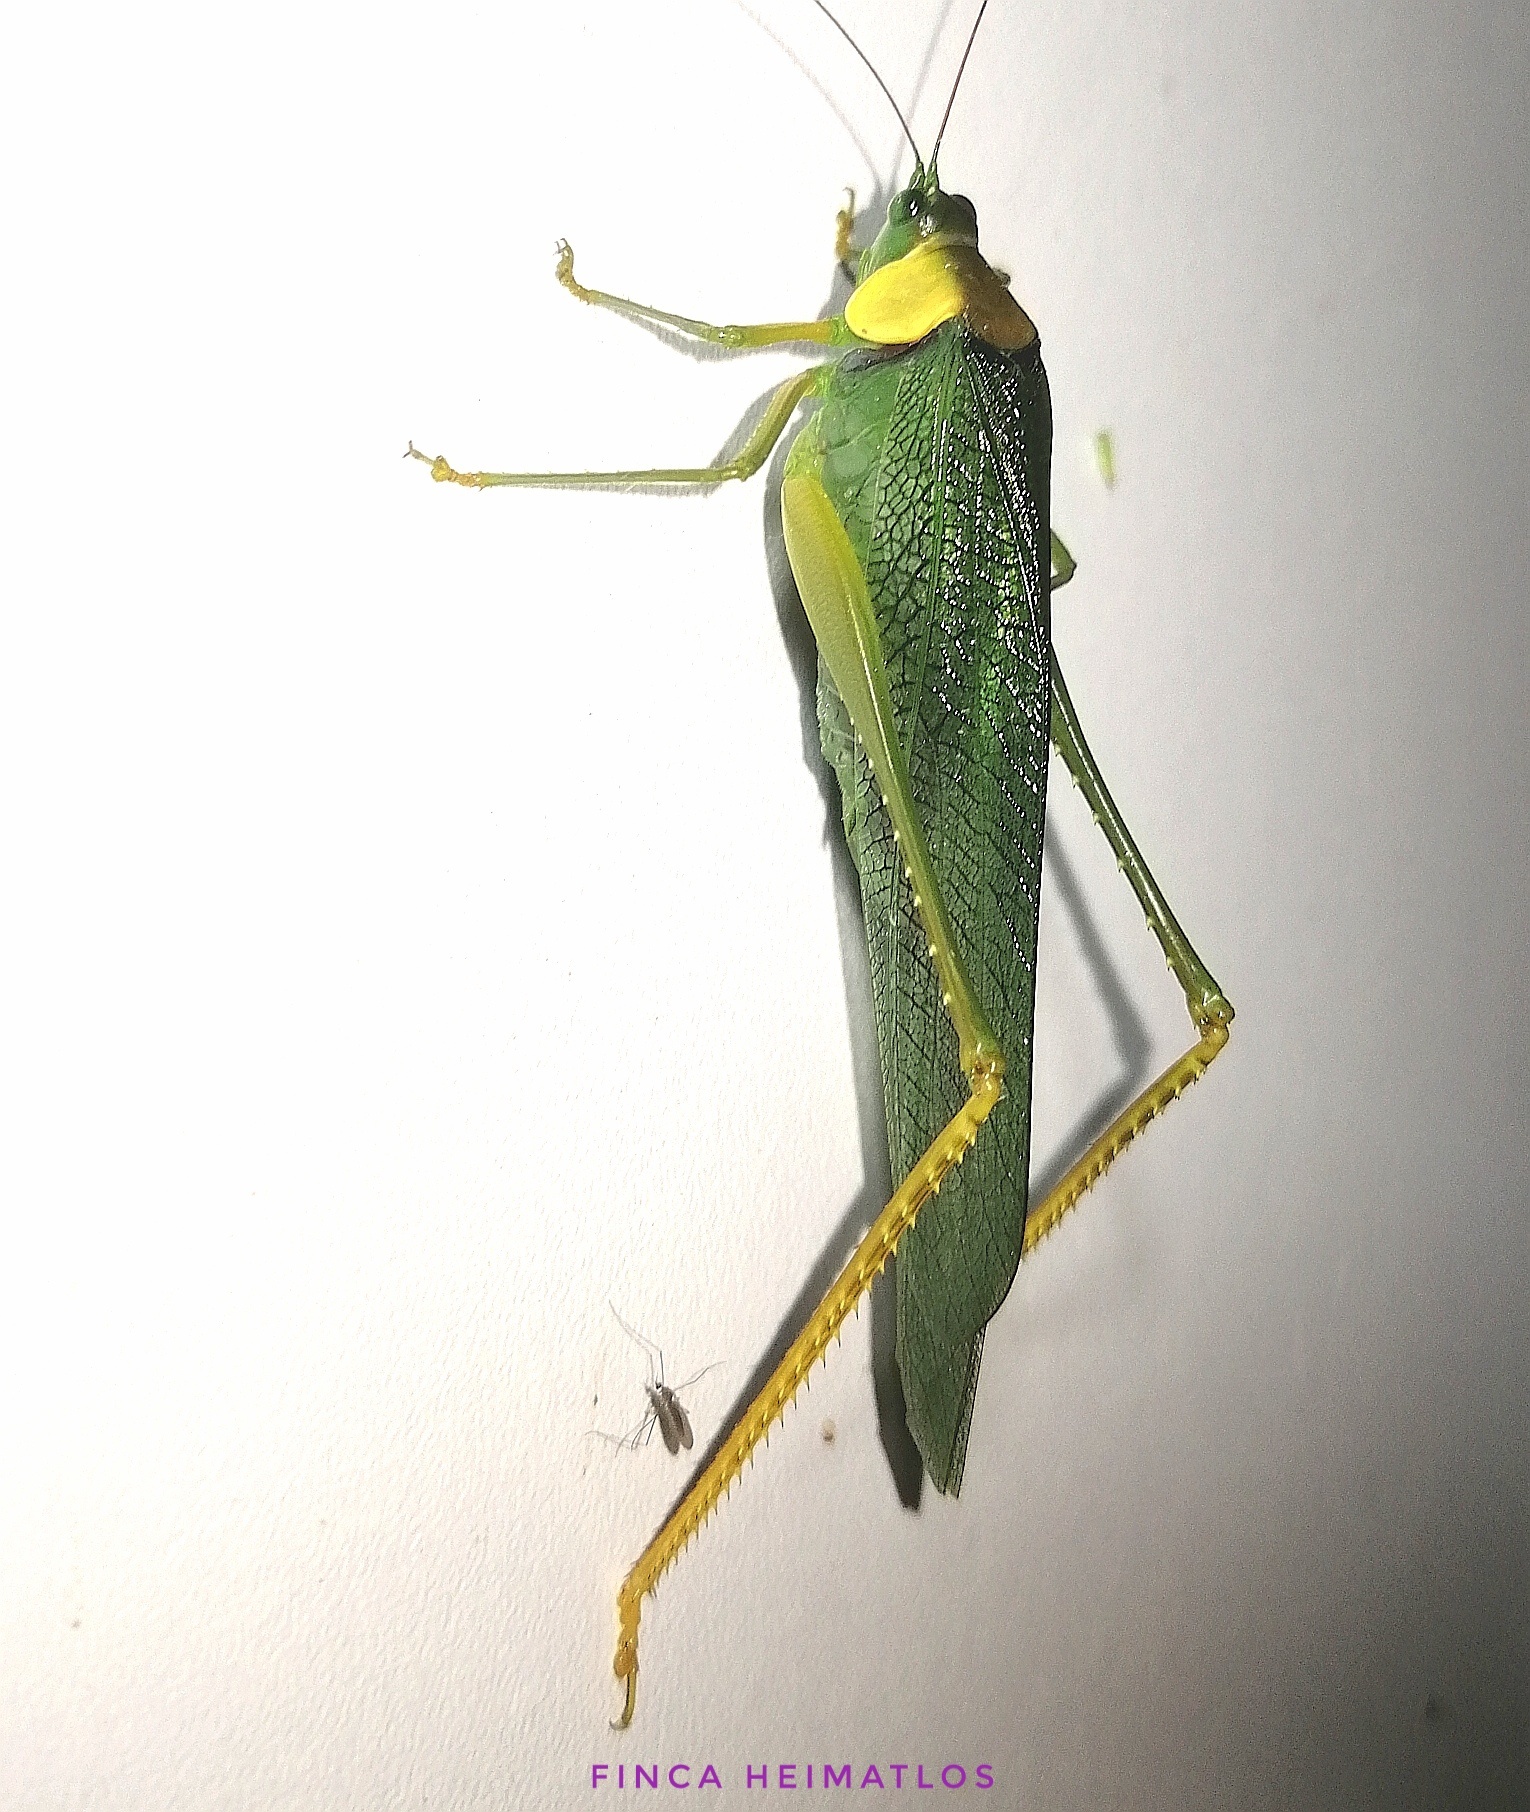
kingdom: Animalia
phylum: Arthropoda
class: Insecta
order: Orthoptera
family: Tettigoniidae
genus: Euceraia
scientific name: Euceraia atryx
